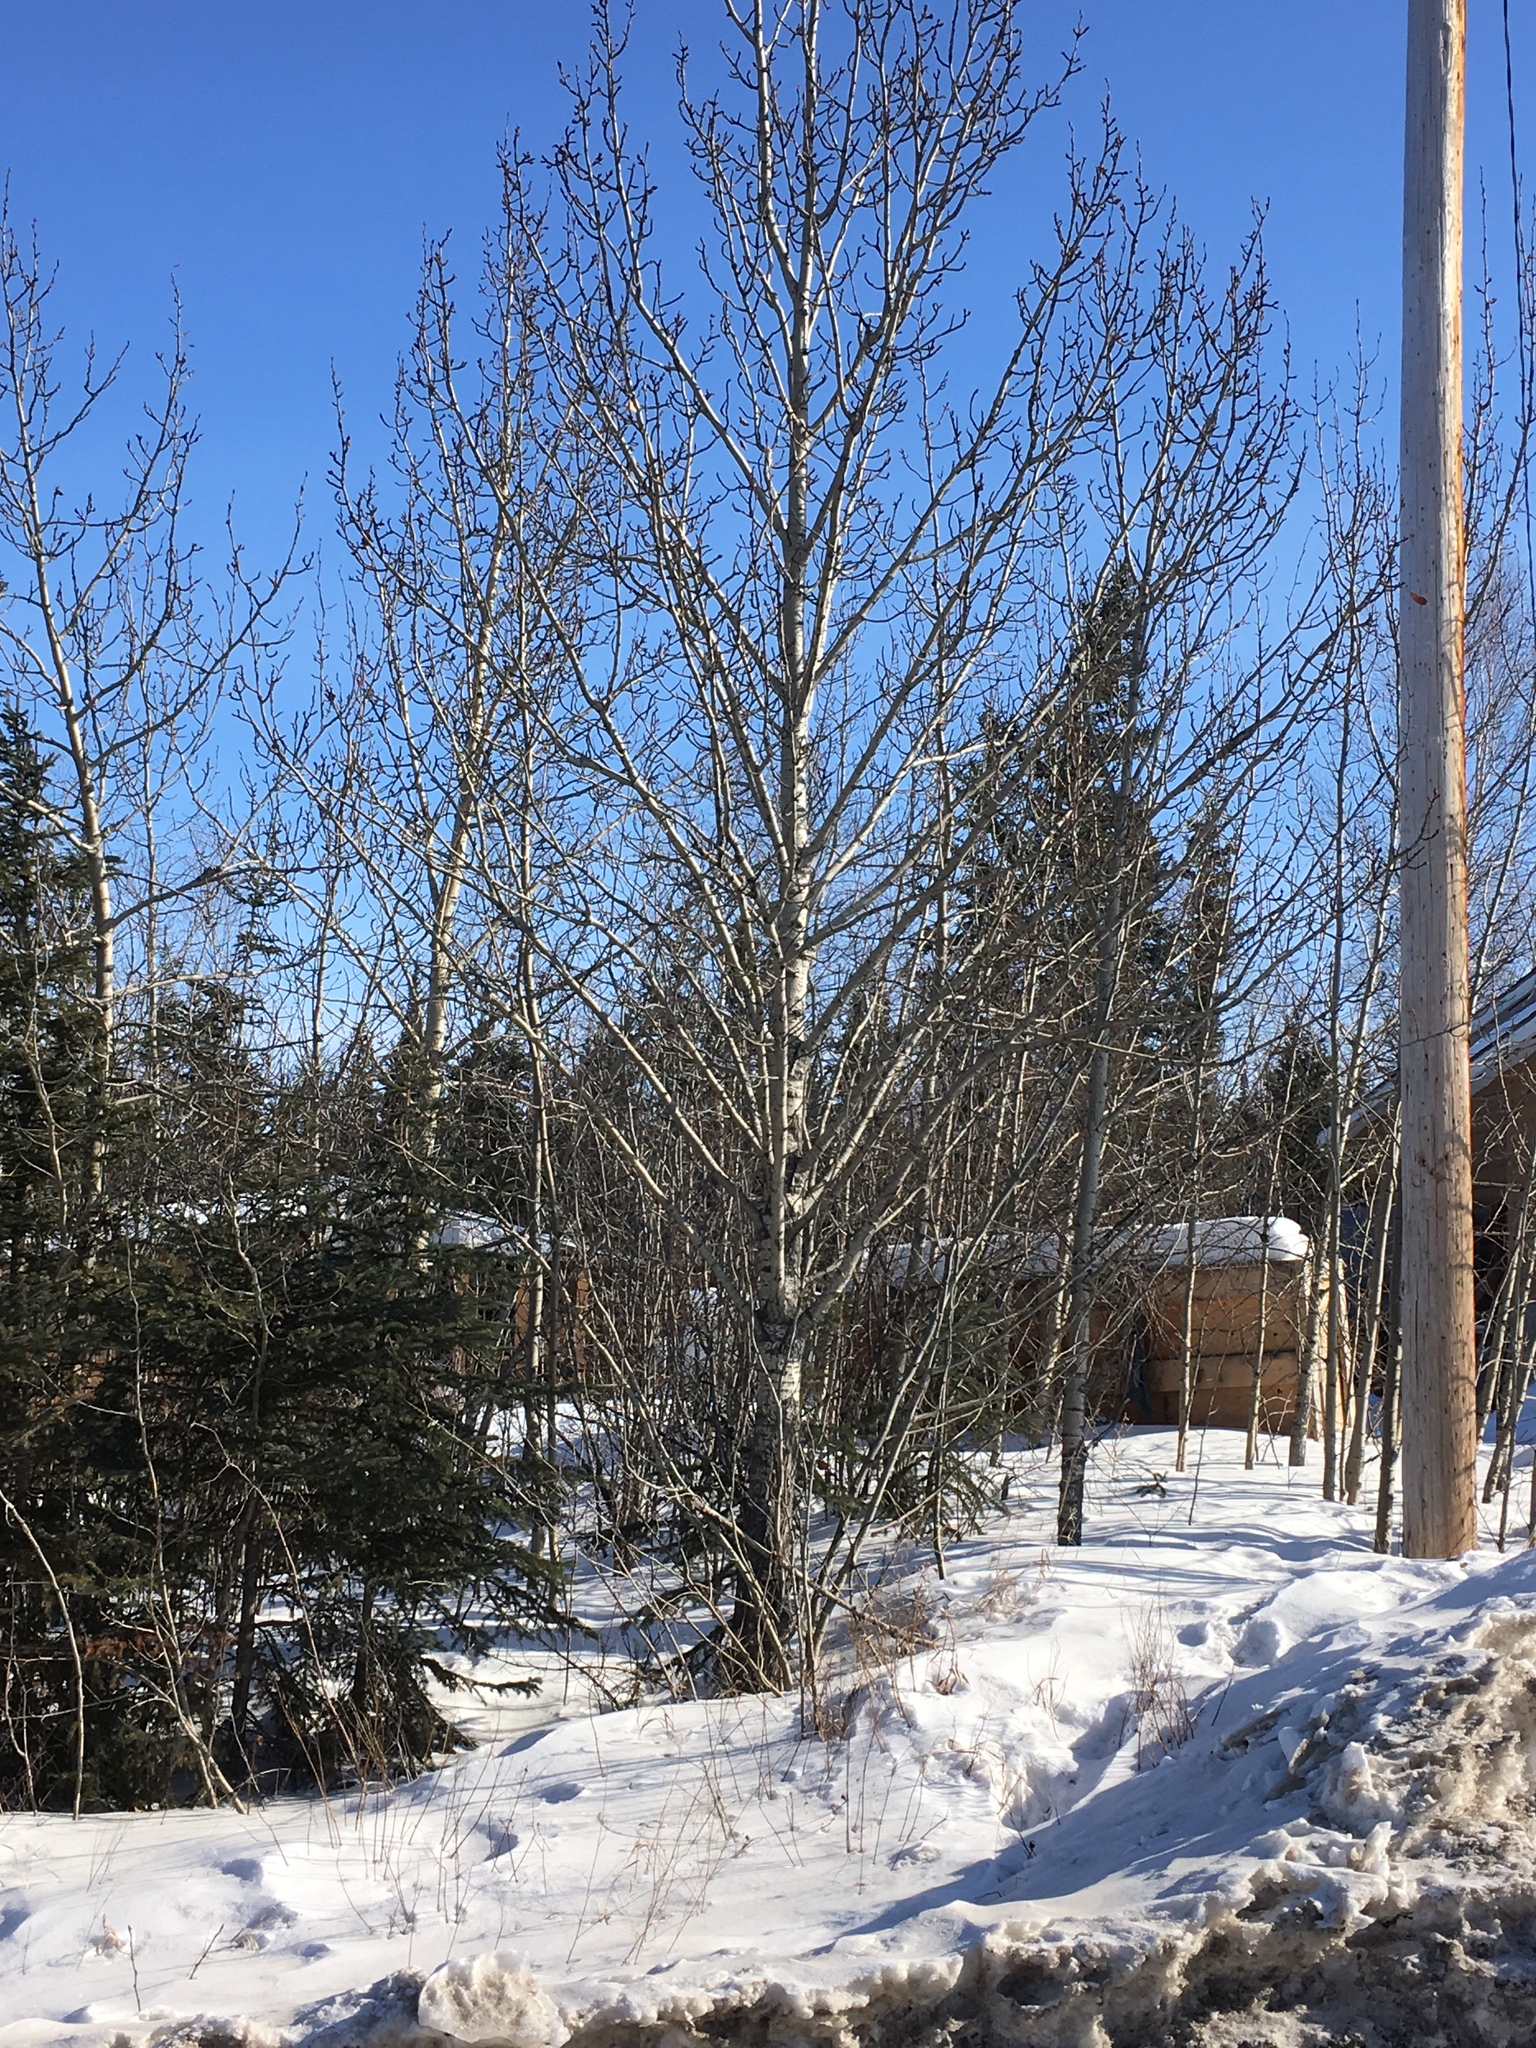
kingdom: Plantae
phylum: Tracheophyta
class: Magnoliopsida
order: Malpighiales
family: Salicaceae
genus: Populus
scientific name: Populus balsamifera
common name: Balsam poplar
